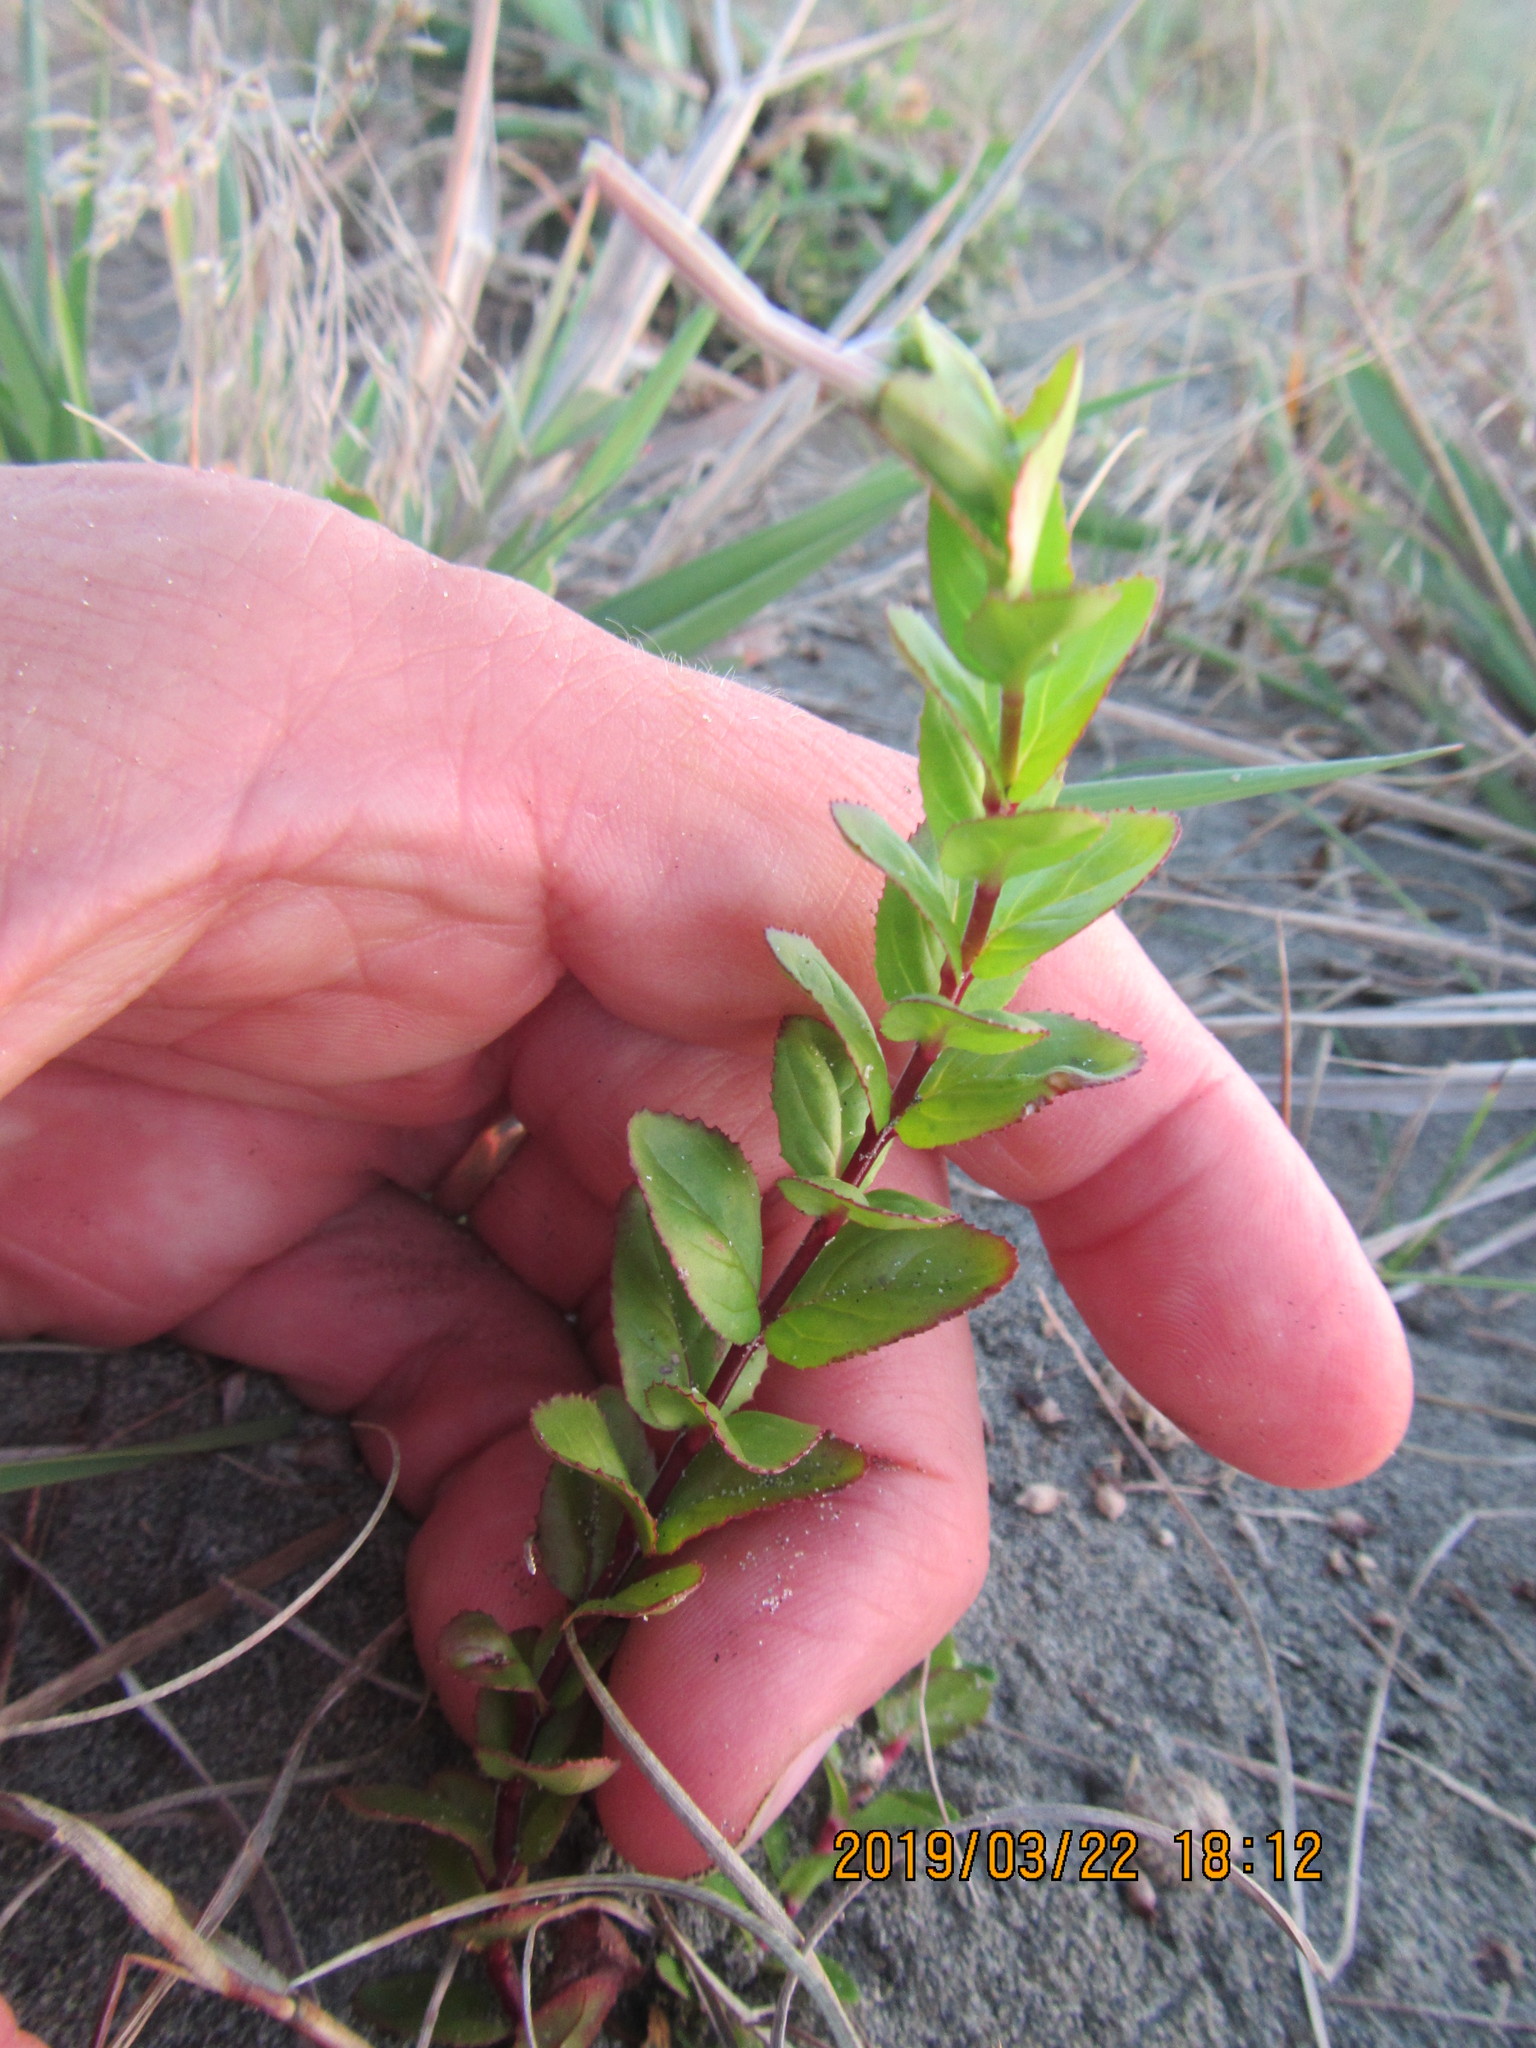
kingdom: Plantae
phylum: Tracheophyta
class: Magnoliopsida
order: Myrtales
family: Onagraceae
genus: Epilobium
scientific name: Epilobium billardiereanum
